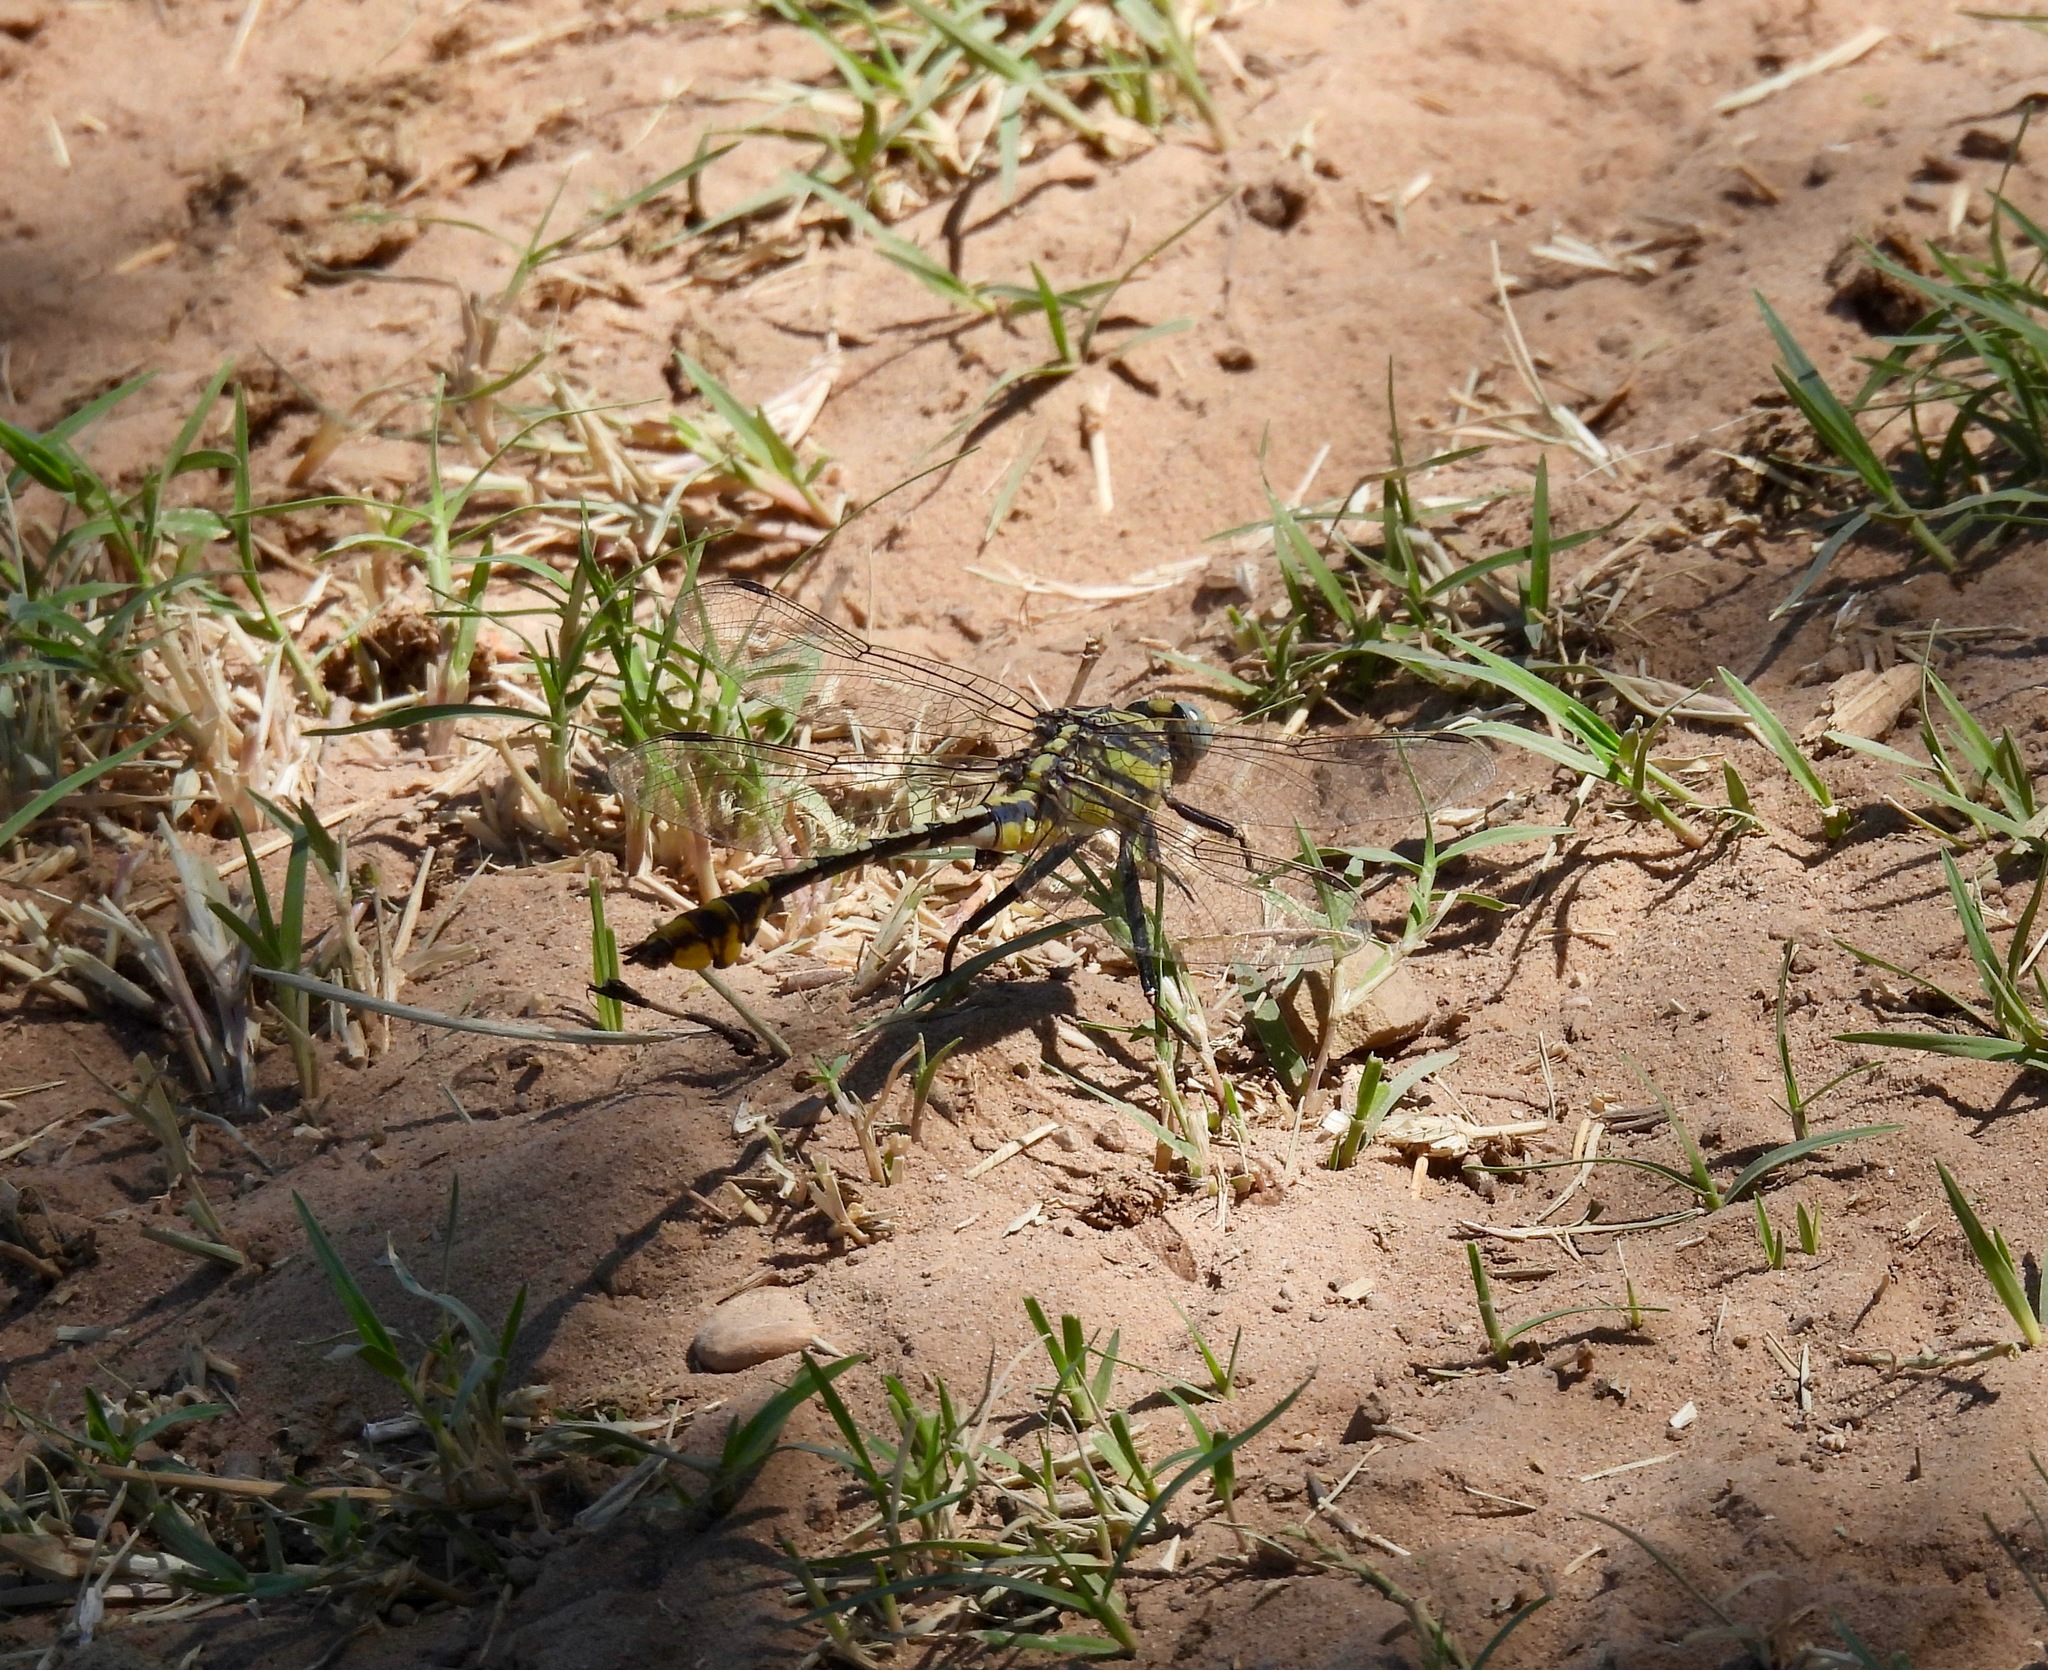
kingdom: Animalia
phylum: Arthropoda
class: Insecta
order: Odonata
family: Gomphidae
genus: Gomphurus
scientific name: Gomphurus externus
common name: Plains clubtail
